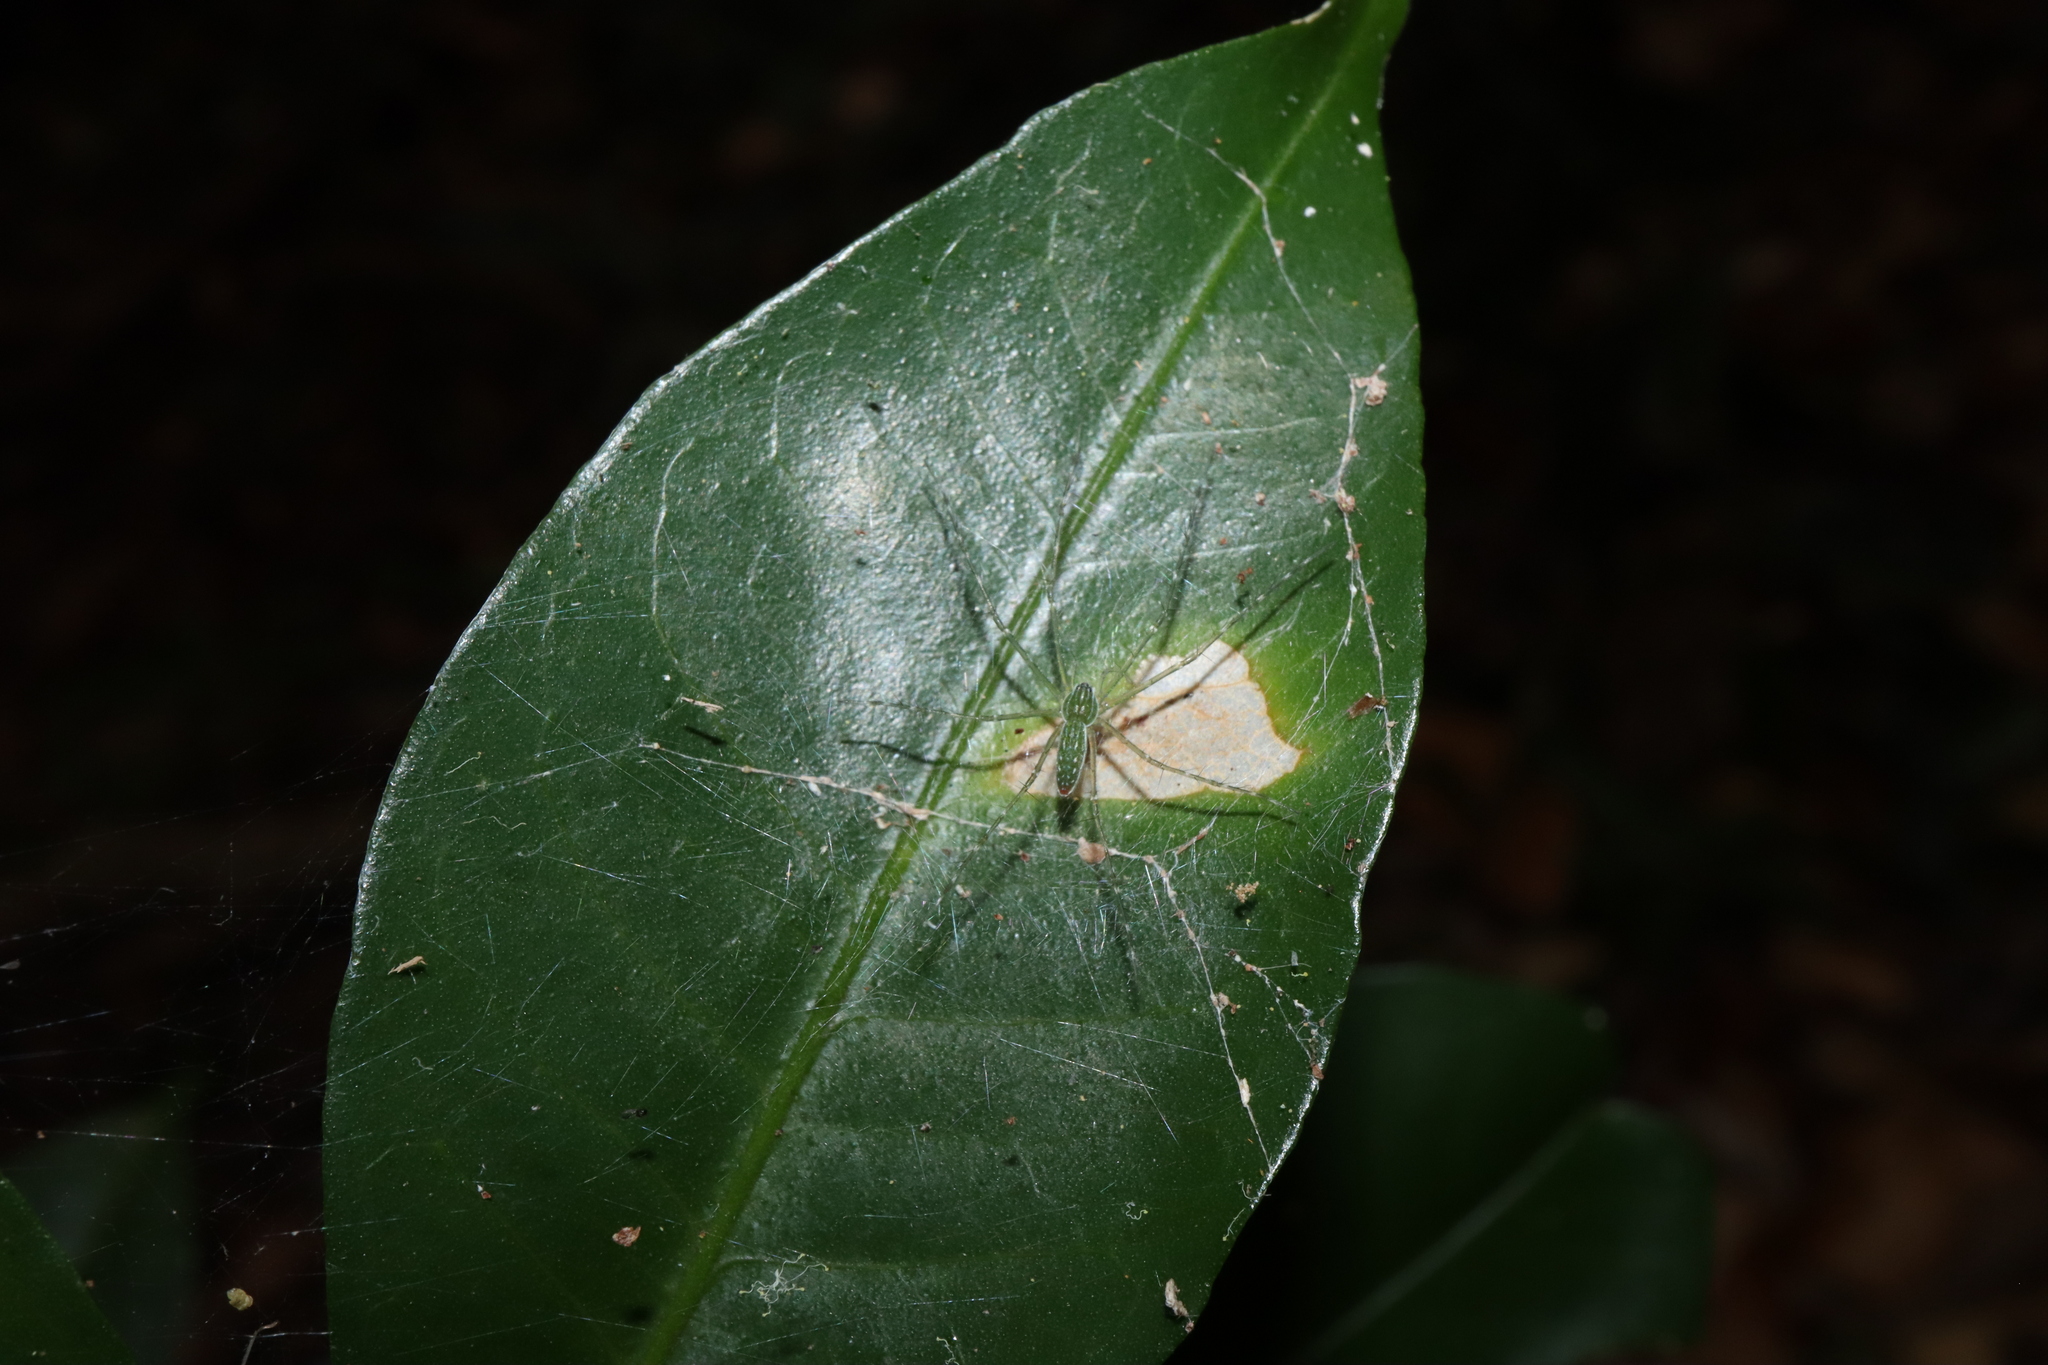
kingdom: Animalia
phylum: Arthropoda
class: Arachnida
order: Araneae
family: Pisauridae
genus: Hygropoda
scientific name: Hygropoda lineata
